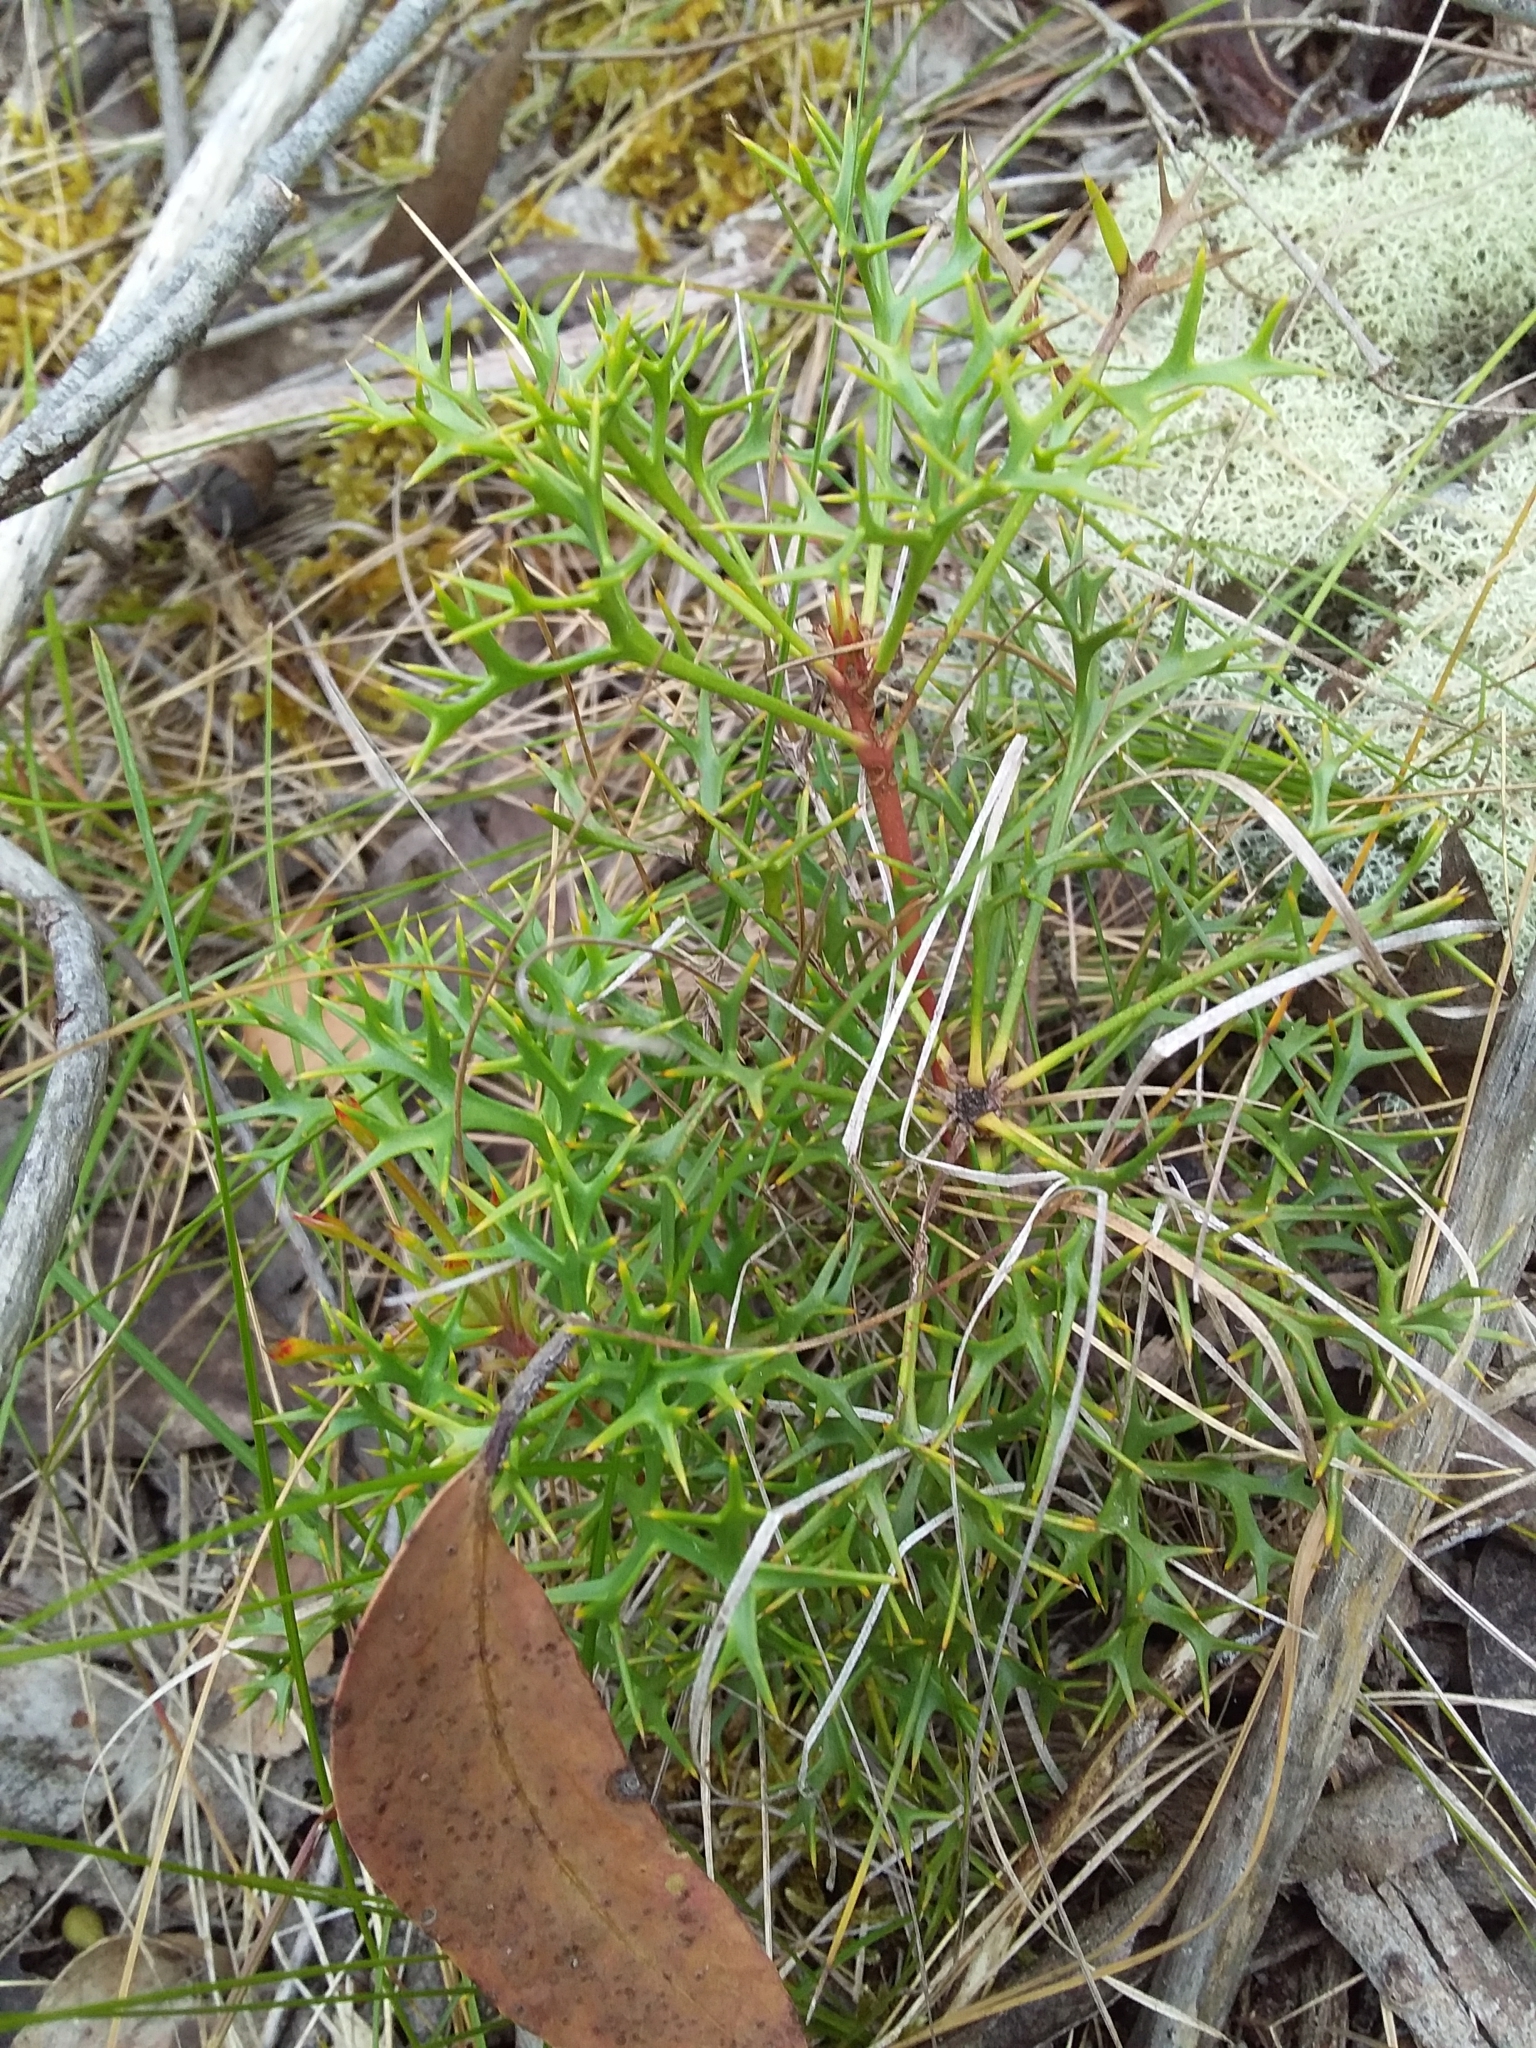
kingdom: Plantae
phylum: Tracheophyta
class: Magnoliopsida
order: Proteales
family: Proteaceae
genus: Isopogon
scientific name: Isopogon ceratophyllus
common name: Horny cone-bush
